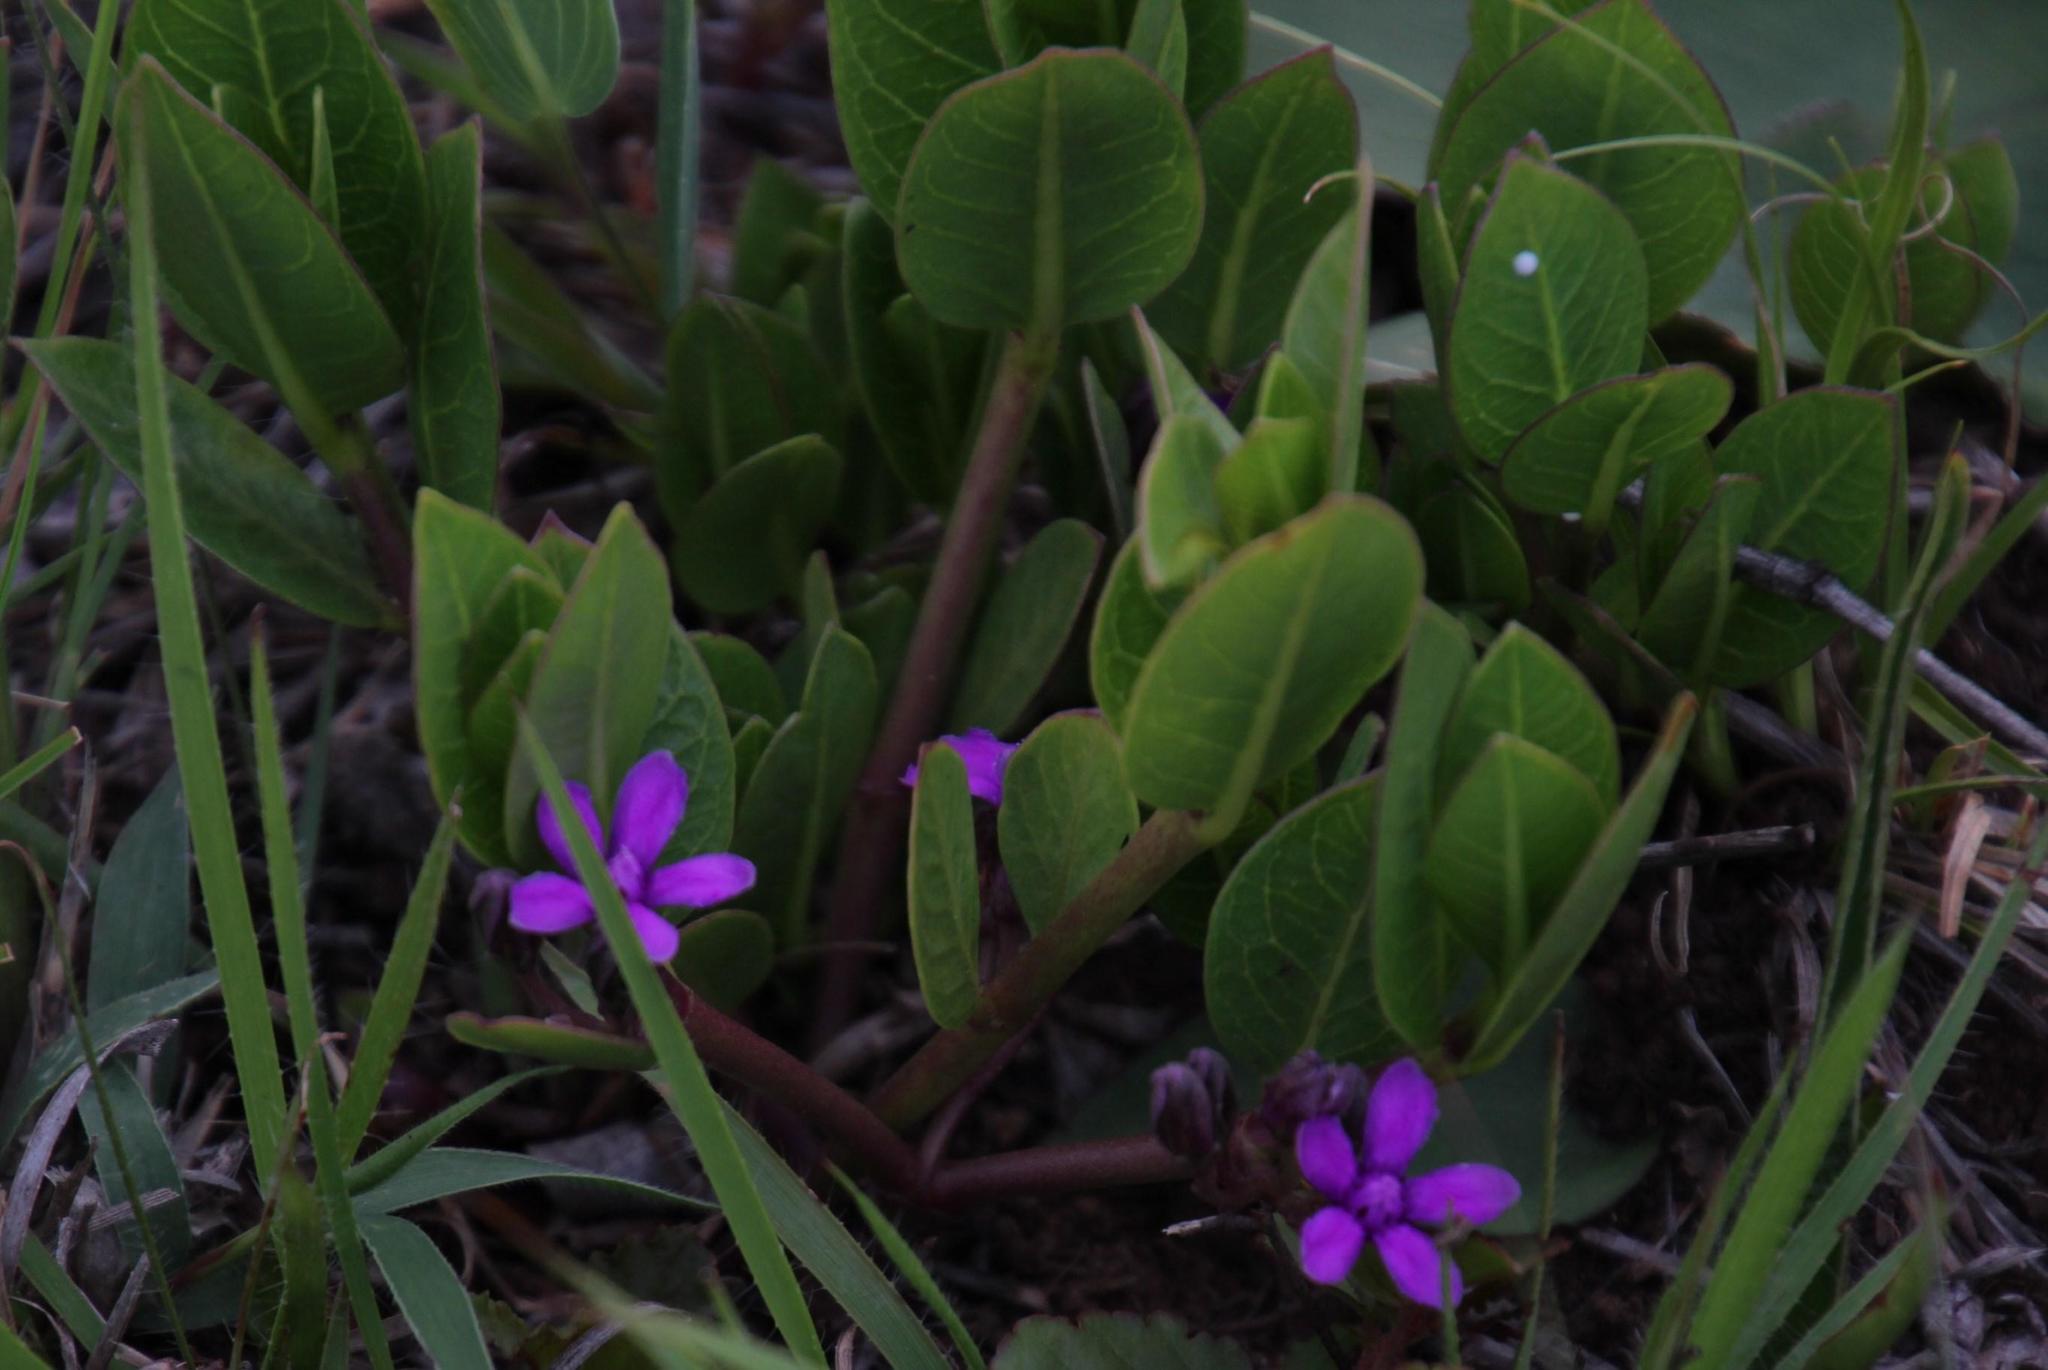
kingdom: Plantae
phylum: Tracheophyta
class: Magnoliopsida
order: Gentianales
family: Apocynaceae
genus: Raphionacme
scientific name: Raphionacme hirsuta
